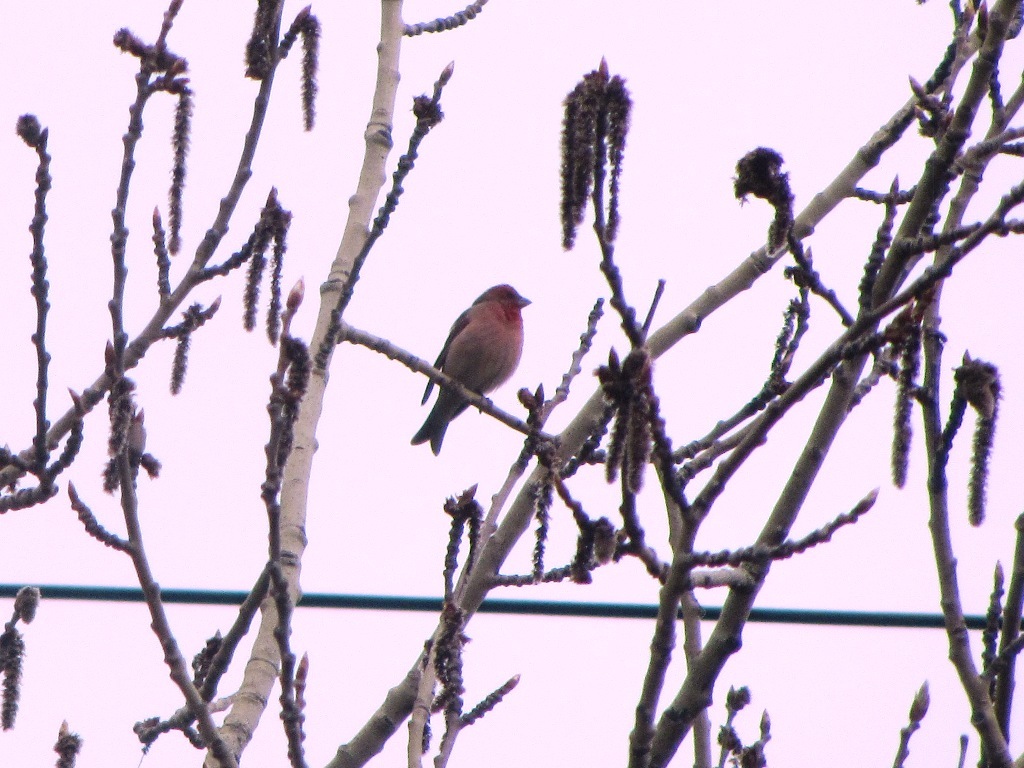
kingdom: Animalia
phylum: Chordata
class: Aves
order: Passeriformes
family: Fringillidae
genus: Carpodacus
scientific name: Carpodacus erythrinus
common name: Common rosefinch
